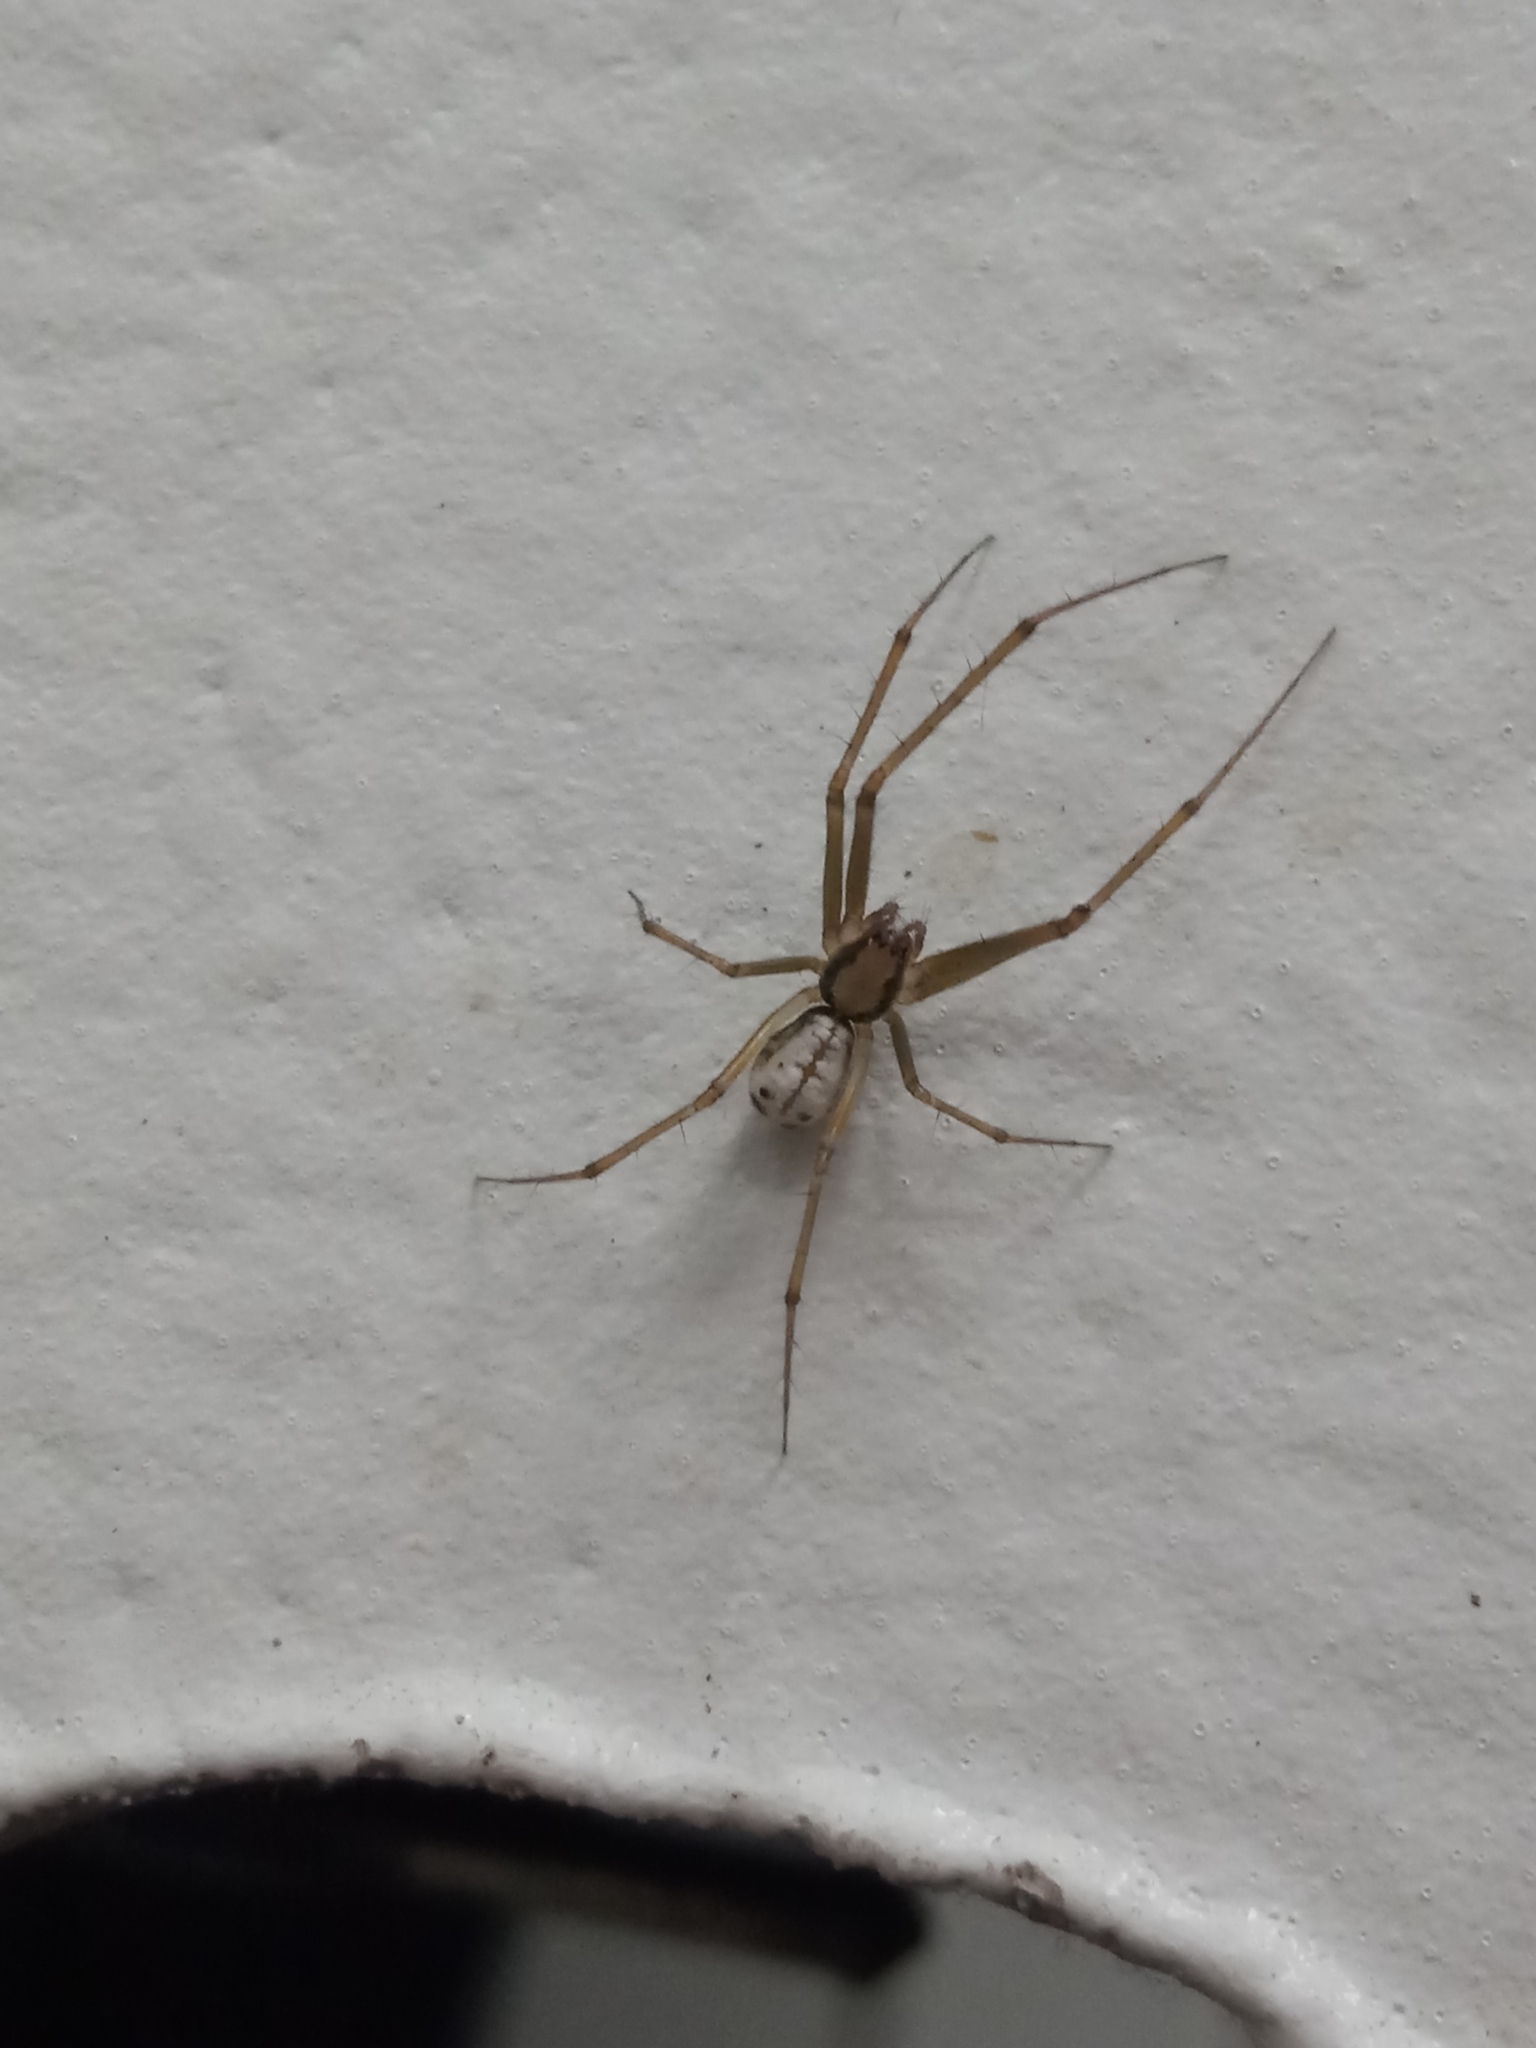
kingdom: Animalia
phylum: Arthropoda
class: Arachnida
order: Araneae
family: Linyphiidae
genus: Floronia
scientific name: Floronia bucculenta
